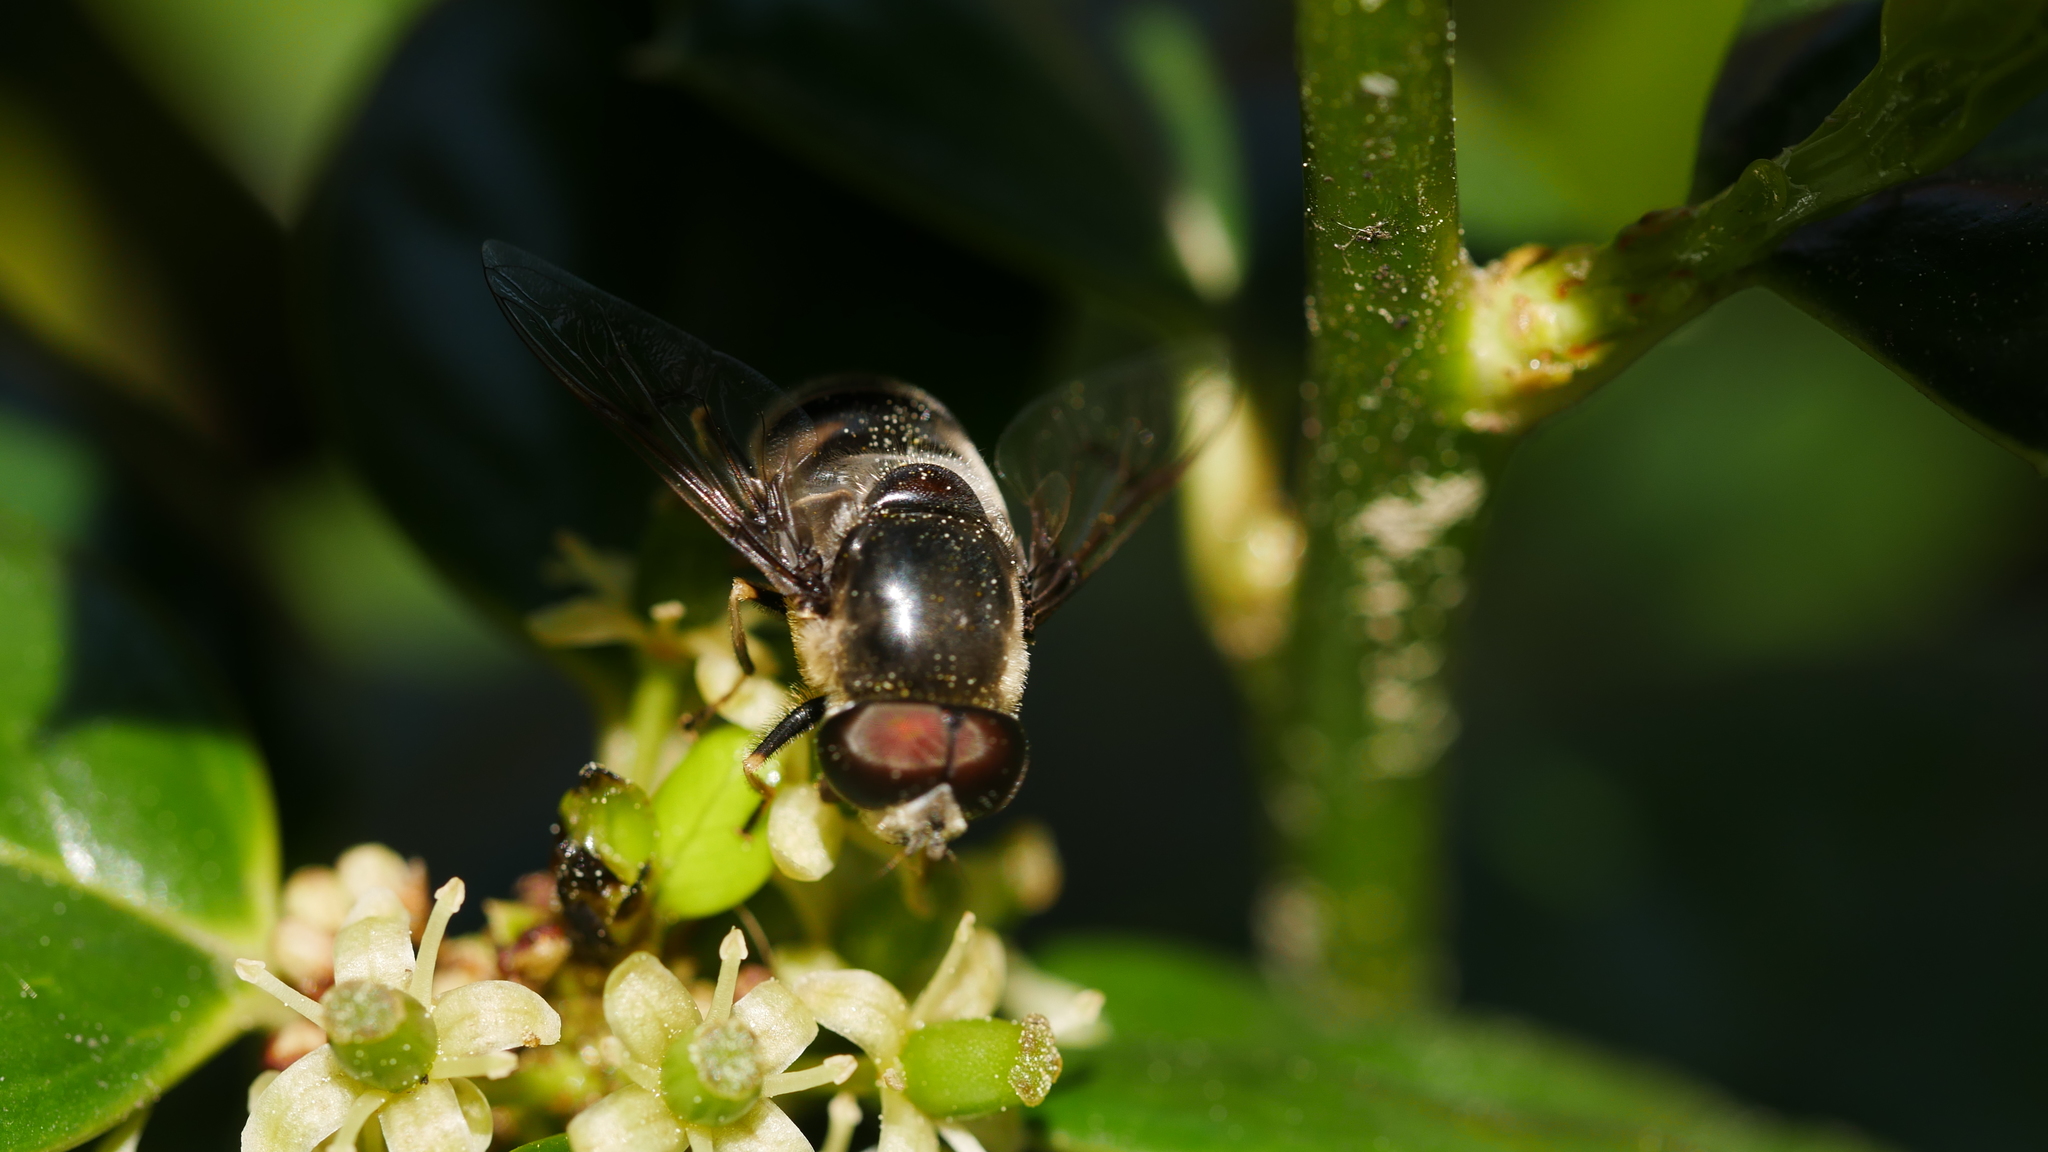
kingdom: Animalia
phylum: Arthropoda
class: Insecta
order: Diptera
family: Syrphidae
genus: Eristalis
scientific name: Eristalis dimidiata
